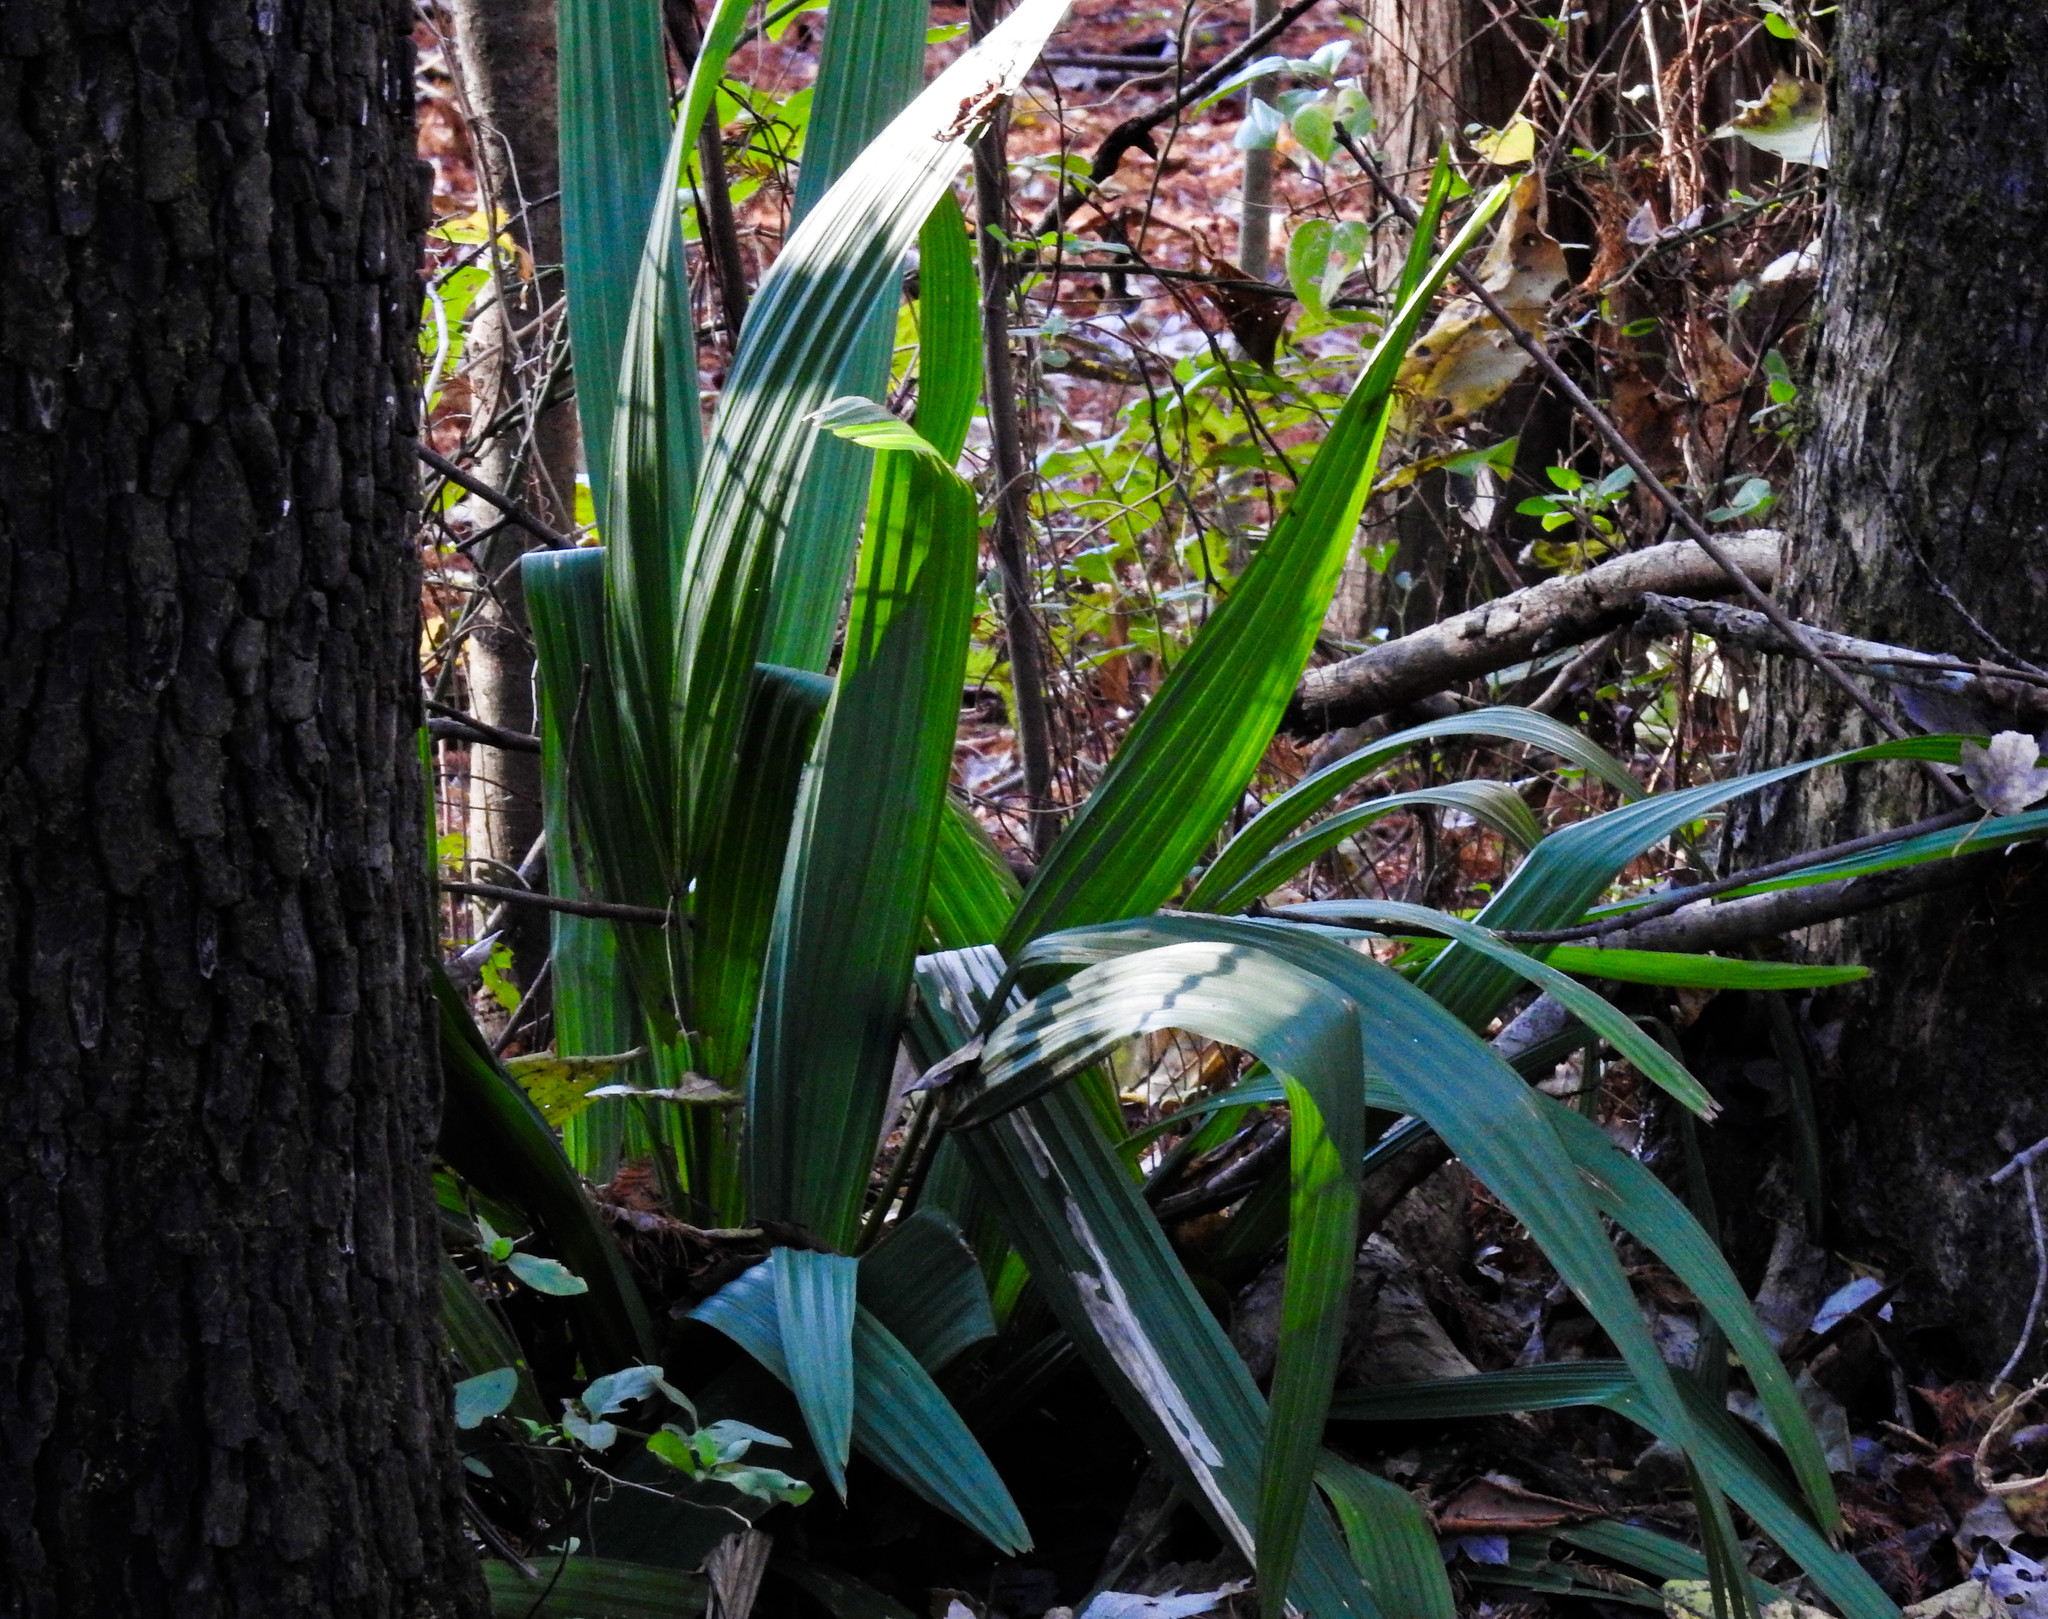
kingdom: Plantae
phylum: Tracheophyta
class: Liliopsida
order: Arecales
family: Arecaceae
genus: Sabal
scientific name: Sabal minor
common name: Dwarf palmetto
